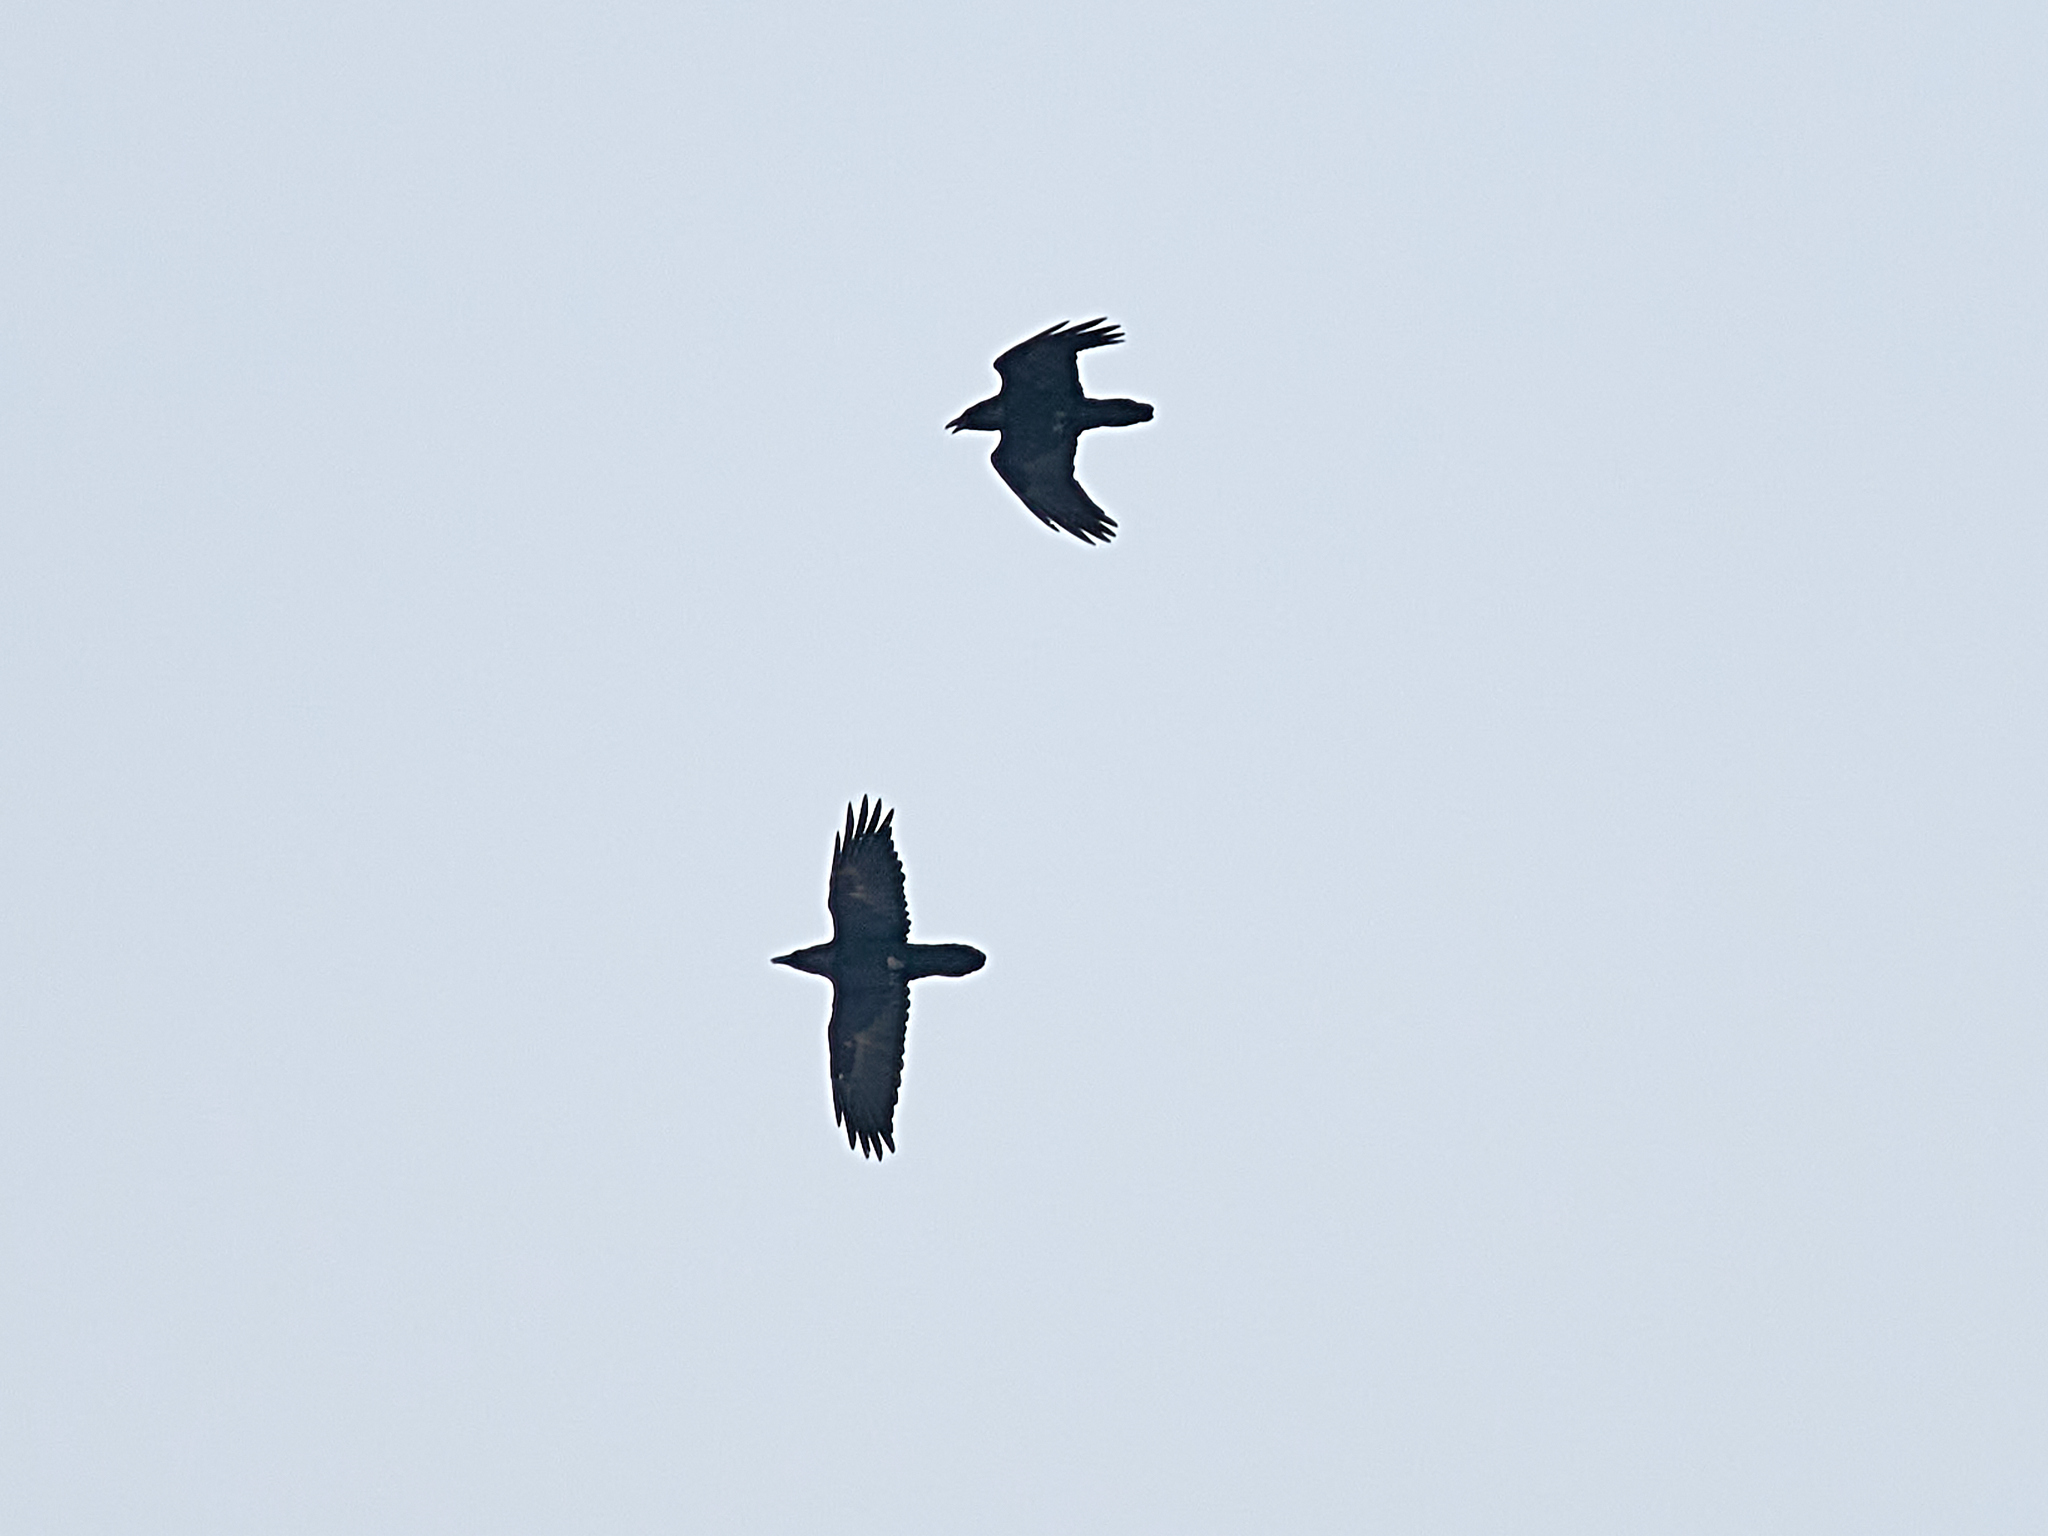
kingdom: Animalia
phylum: Chordata
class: Aves
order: Passeriformes
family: Corvidae
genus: Corvus
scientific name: Corvus corax
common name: Common raven
